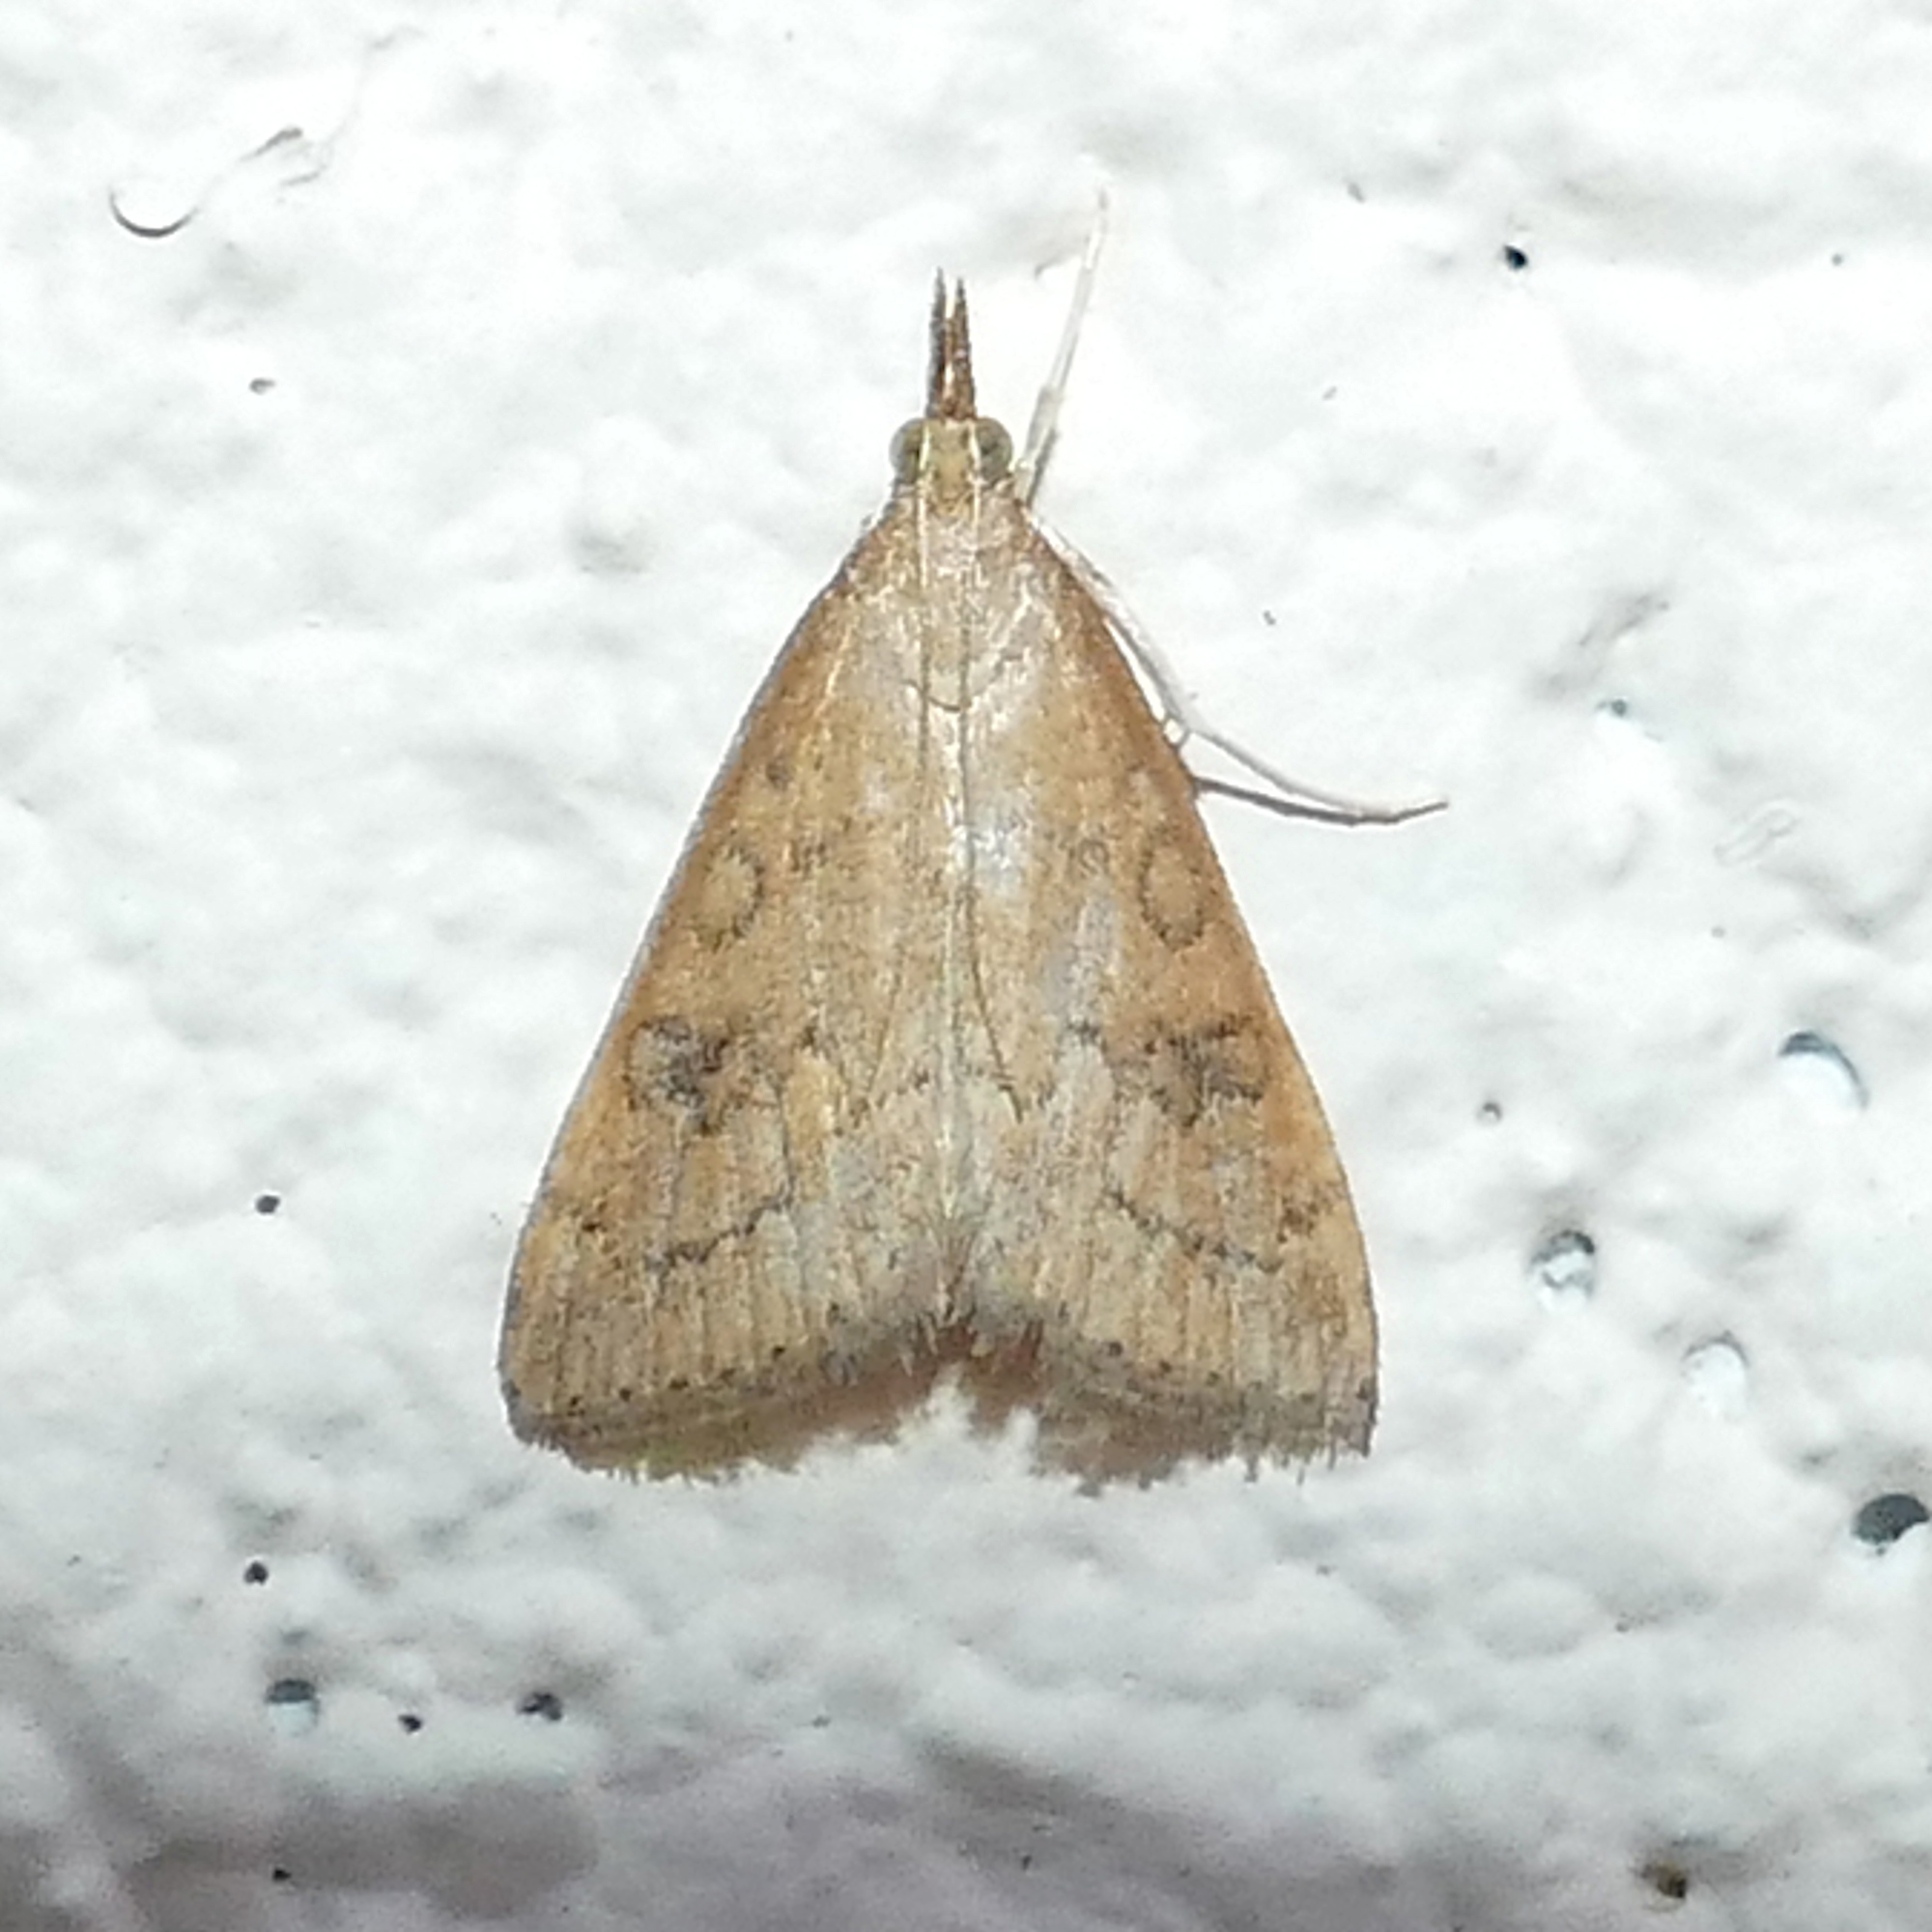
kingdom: Animalia
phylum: Arthropoda
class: Insecta
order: Lepidoptera
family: Crambidae
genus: Udea
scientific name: Udea rubigalis
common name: Celery leaftier moth
